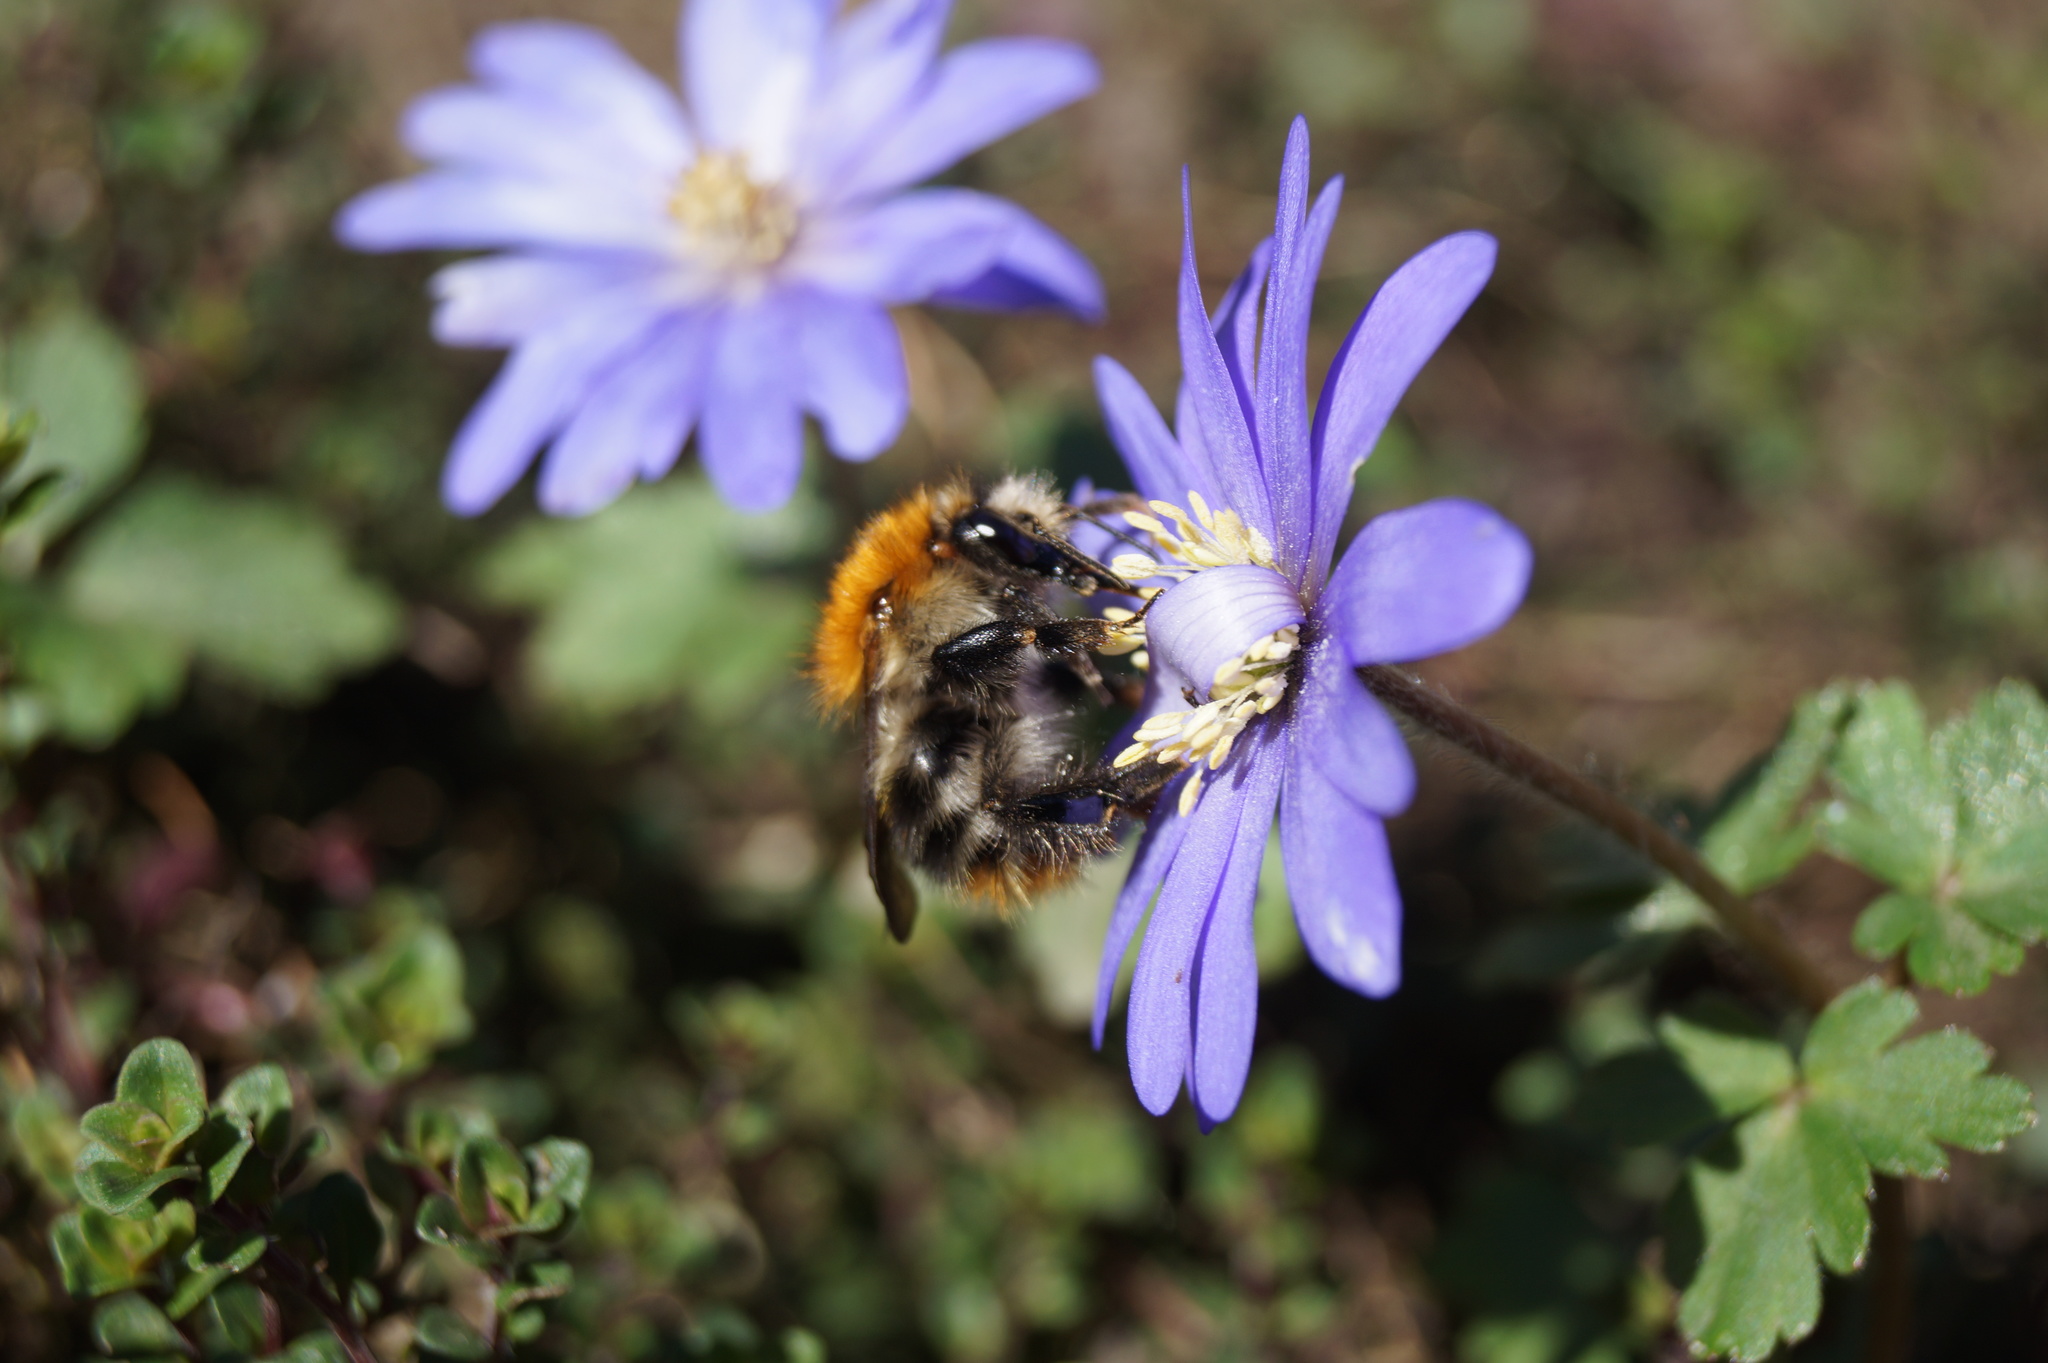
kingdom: Animalia
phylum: Arthropoda
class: Insecta
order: Hymenoptera
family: Apidae
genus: Bombus
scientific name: Bombus pascuorum
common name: Common carder bee
